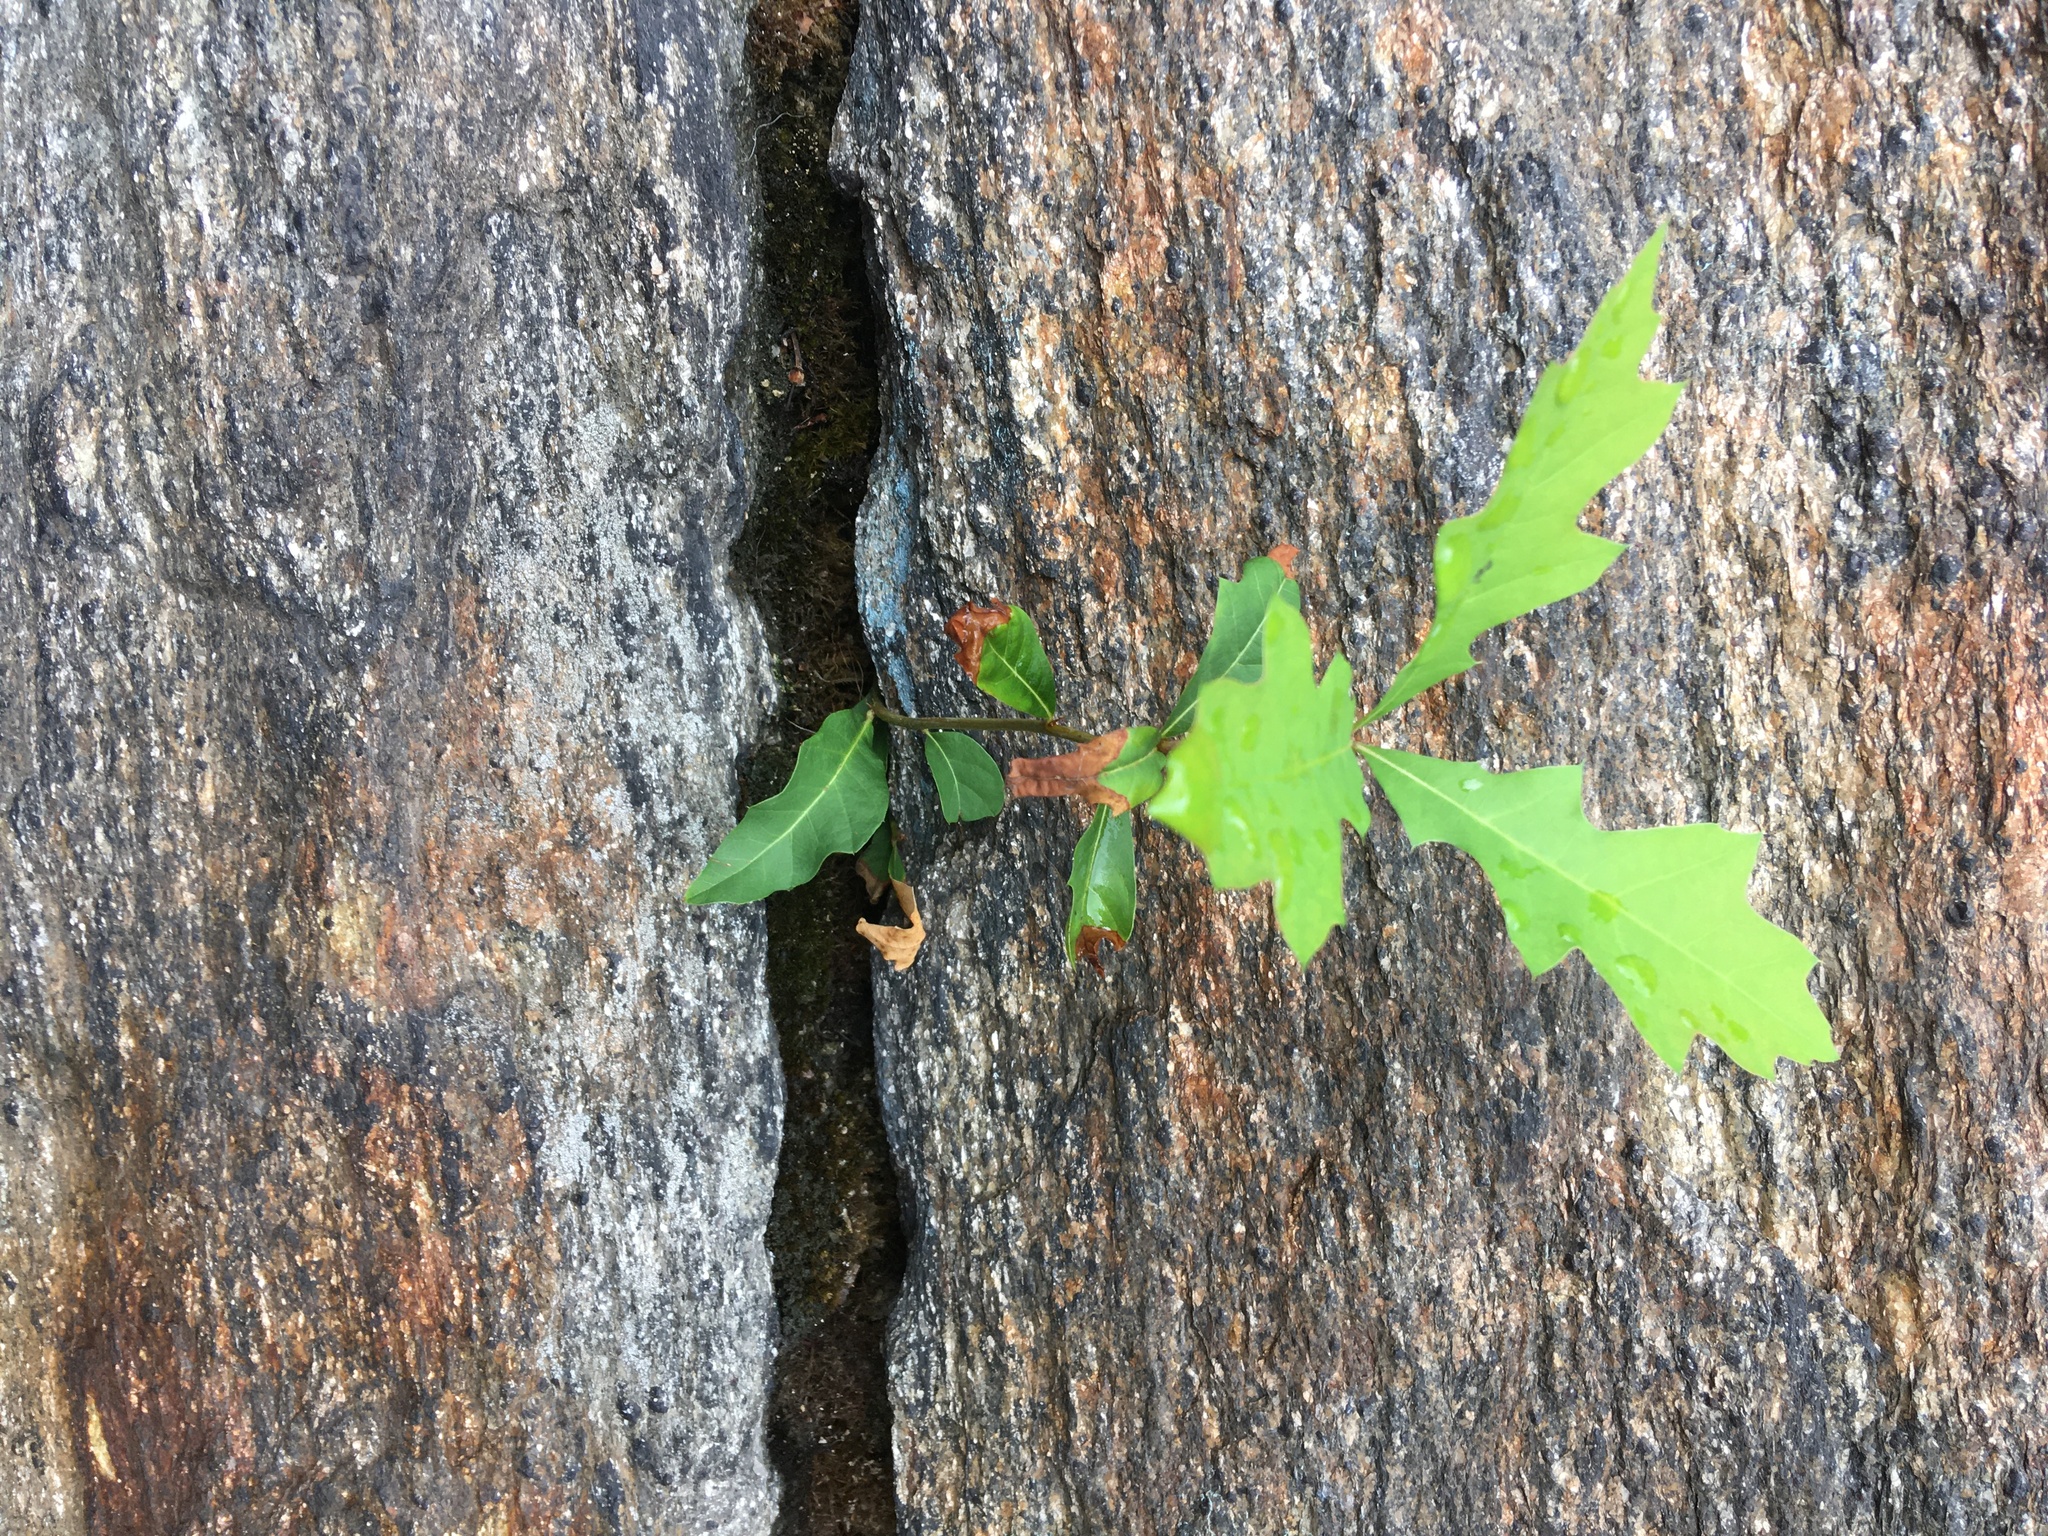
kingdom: Plantae
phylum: Tracheophyta
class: Magnoliopsida
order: Fagales
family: Fagaceae
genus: Quercus
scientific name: Quercus palustris
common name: Pin oak
